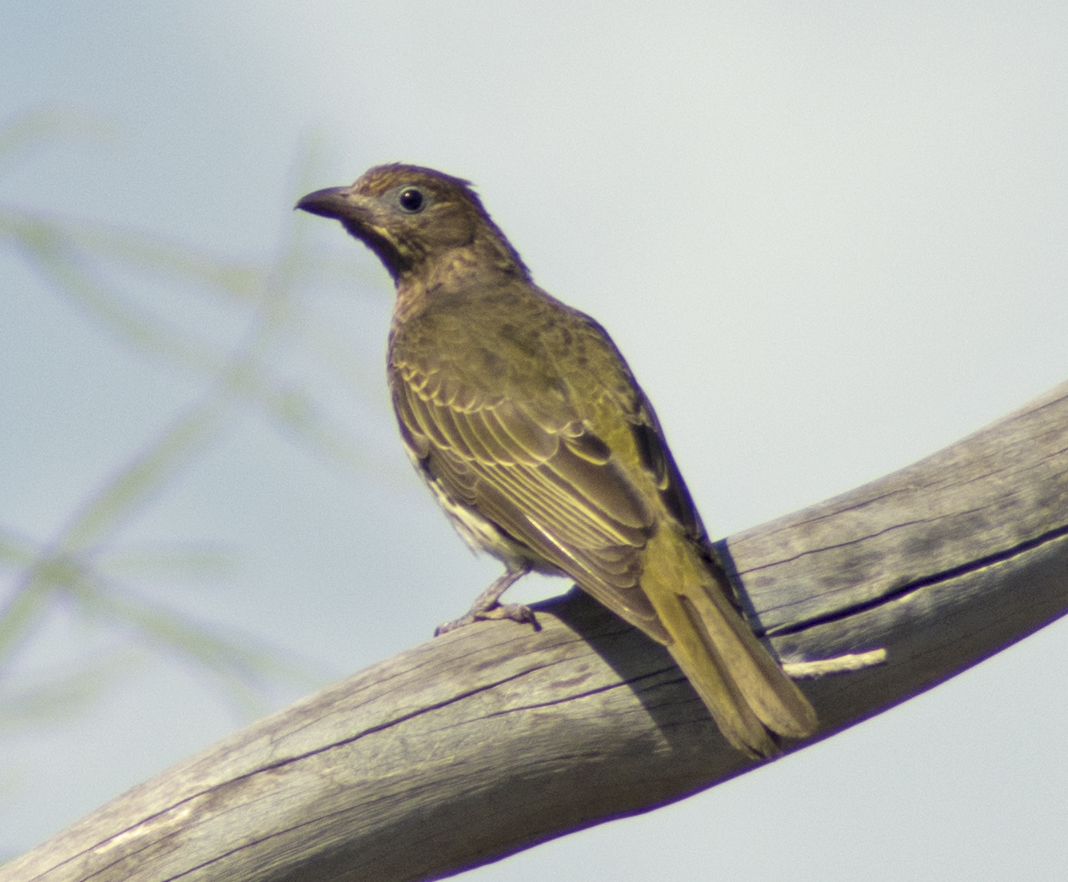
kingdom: Animalia
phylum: Chordata
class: Aves
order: Passeriformes
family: Oriolidae
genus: Sphecotheres
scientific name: Sphecotheres vieilloti
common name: Australasian figbird
